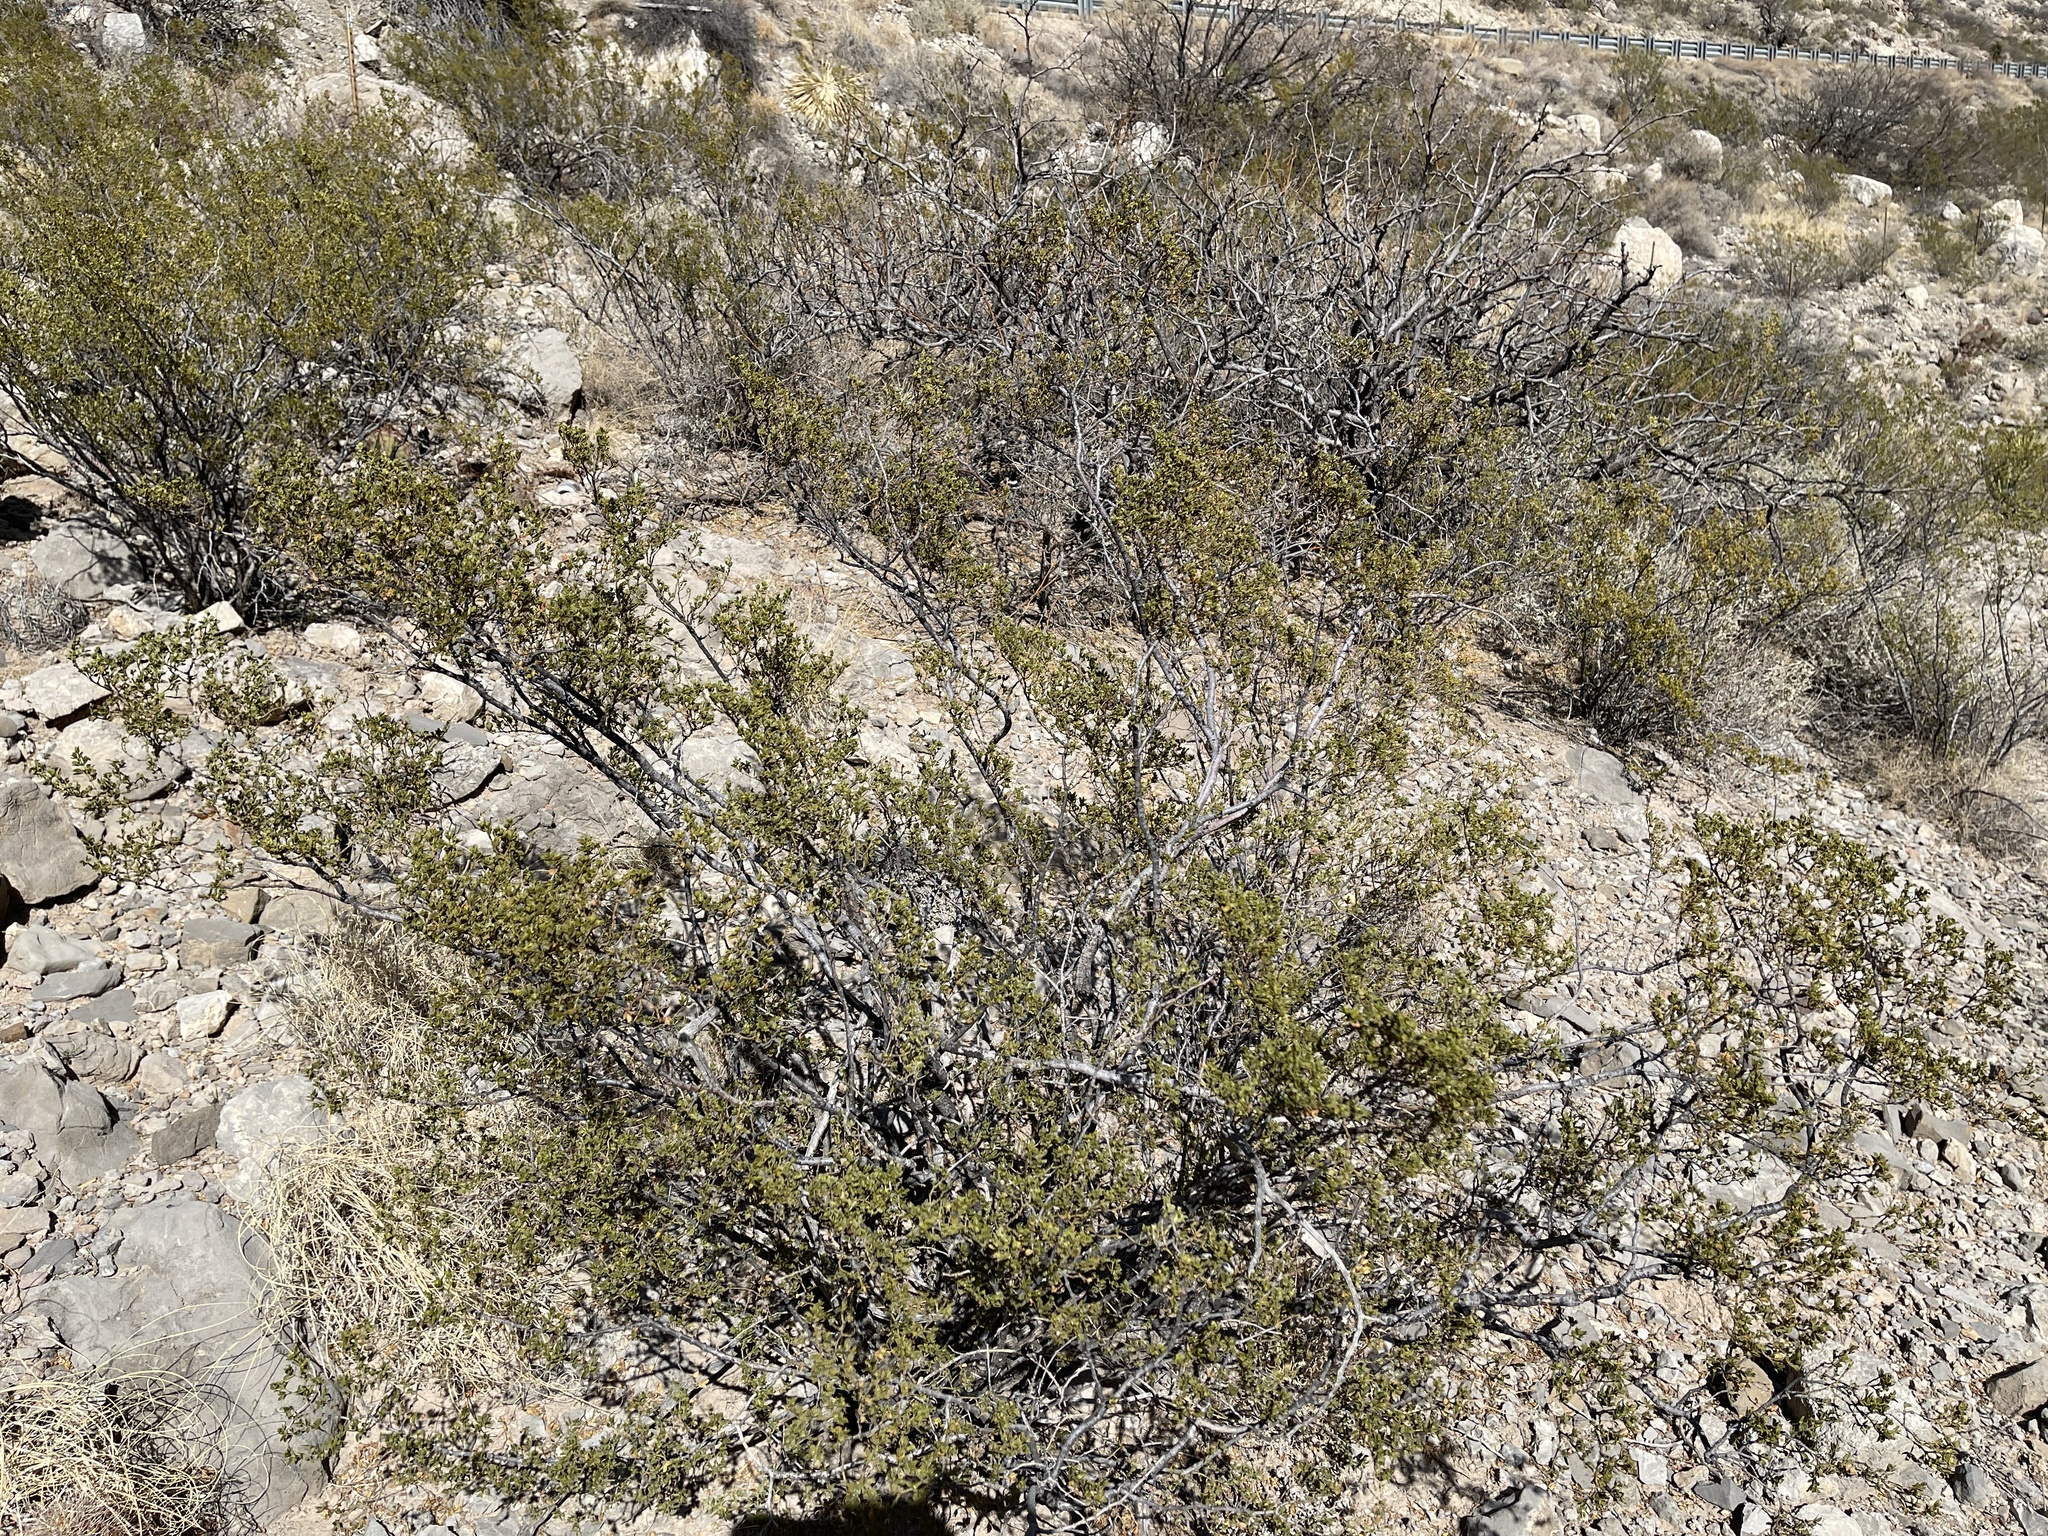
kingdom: Plantae
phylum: Tracheophyta
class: Magnoliopsida
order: Zygophyllales
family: Zygophyllaceae
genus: Larrea
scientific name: Larrea tridentata
